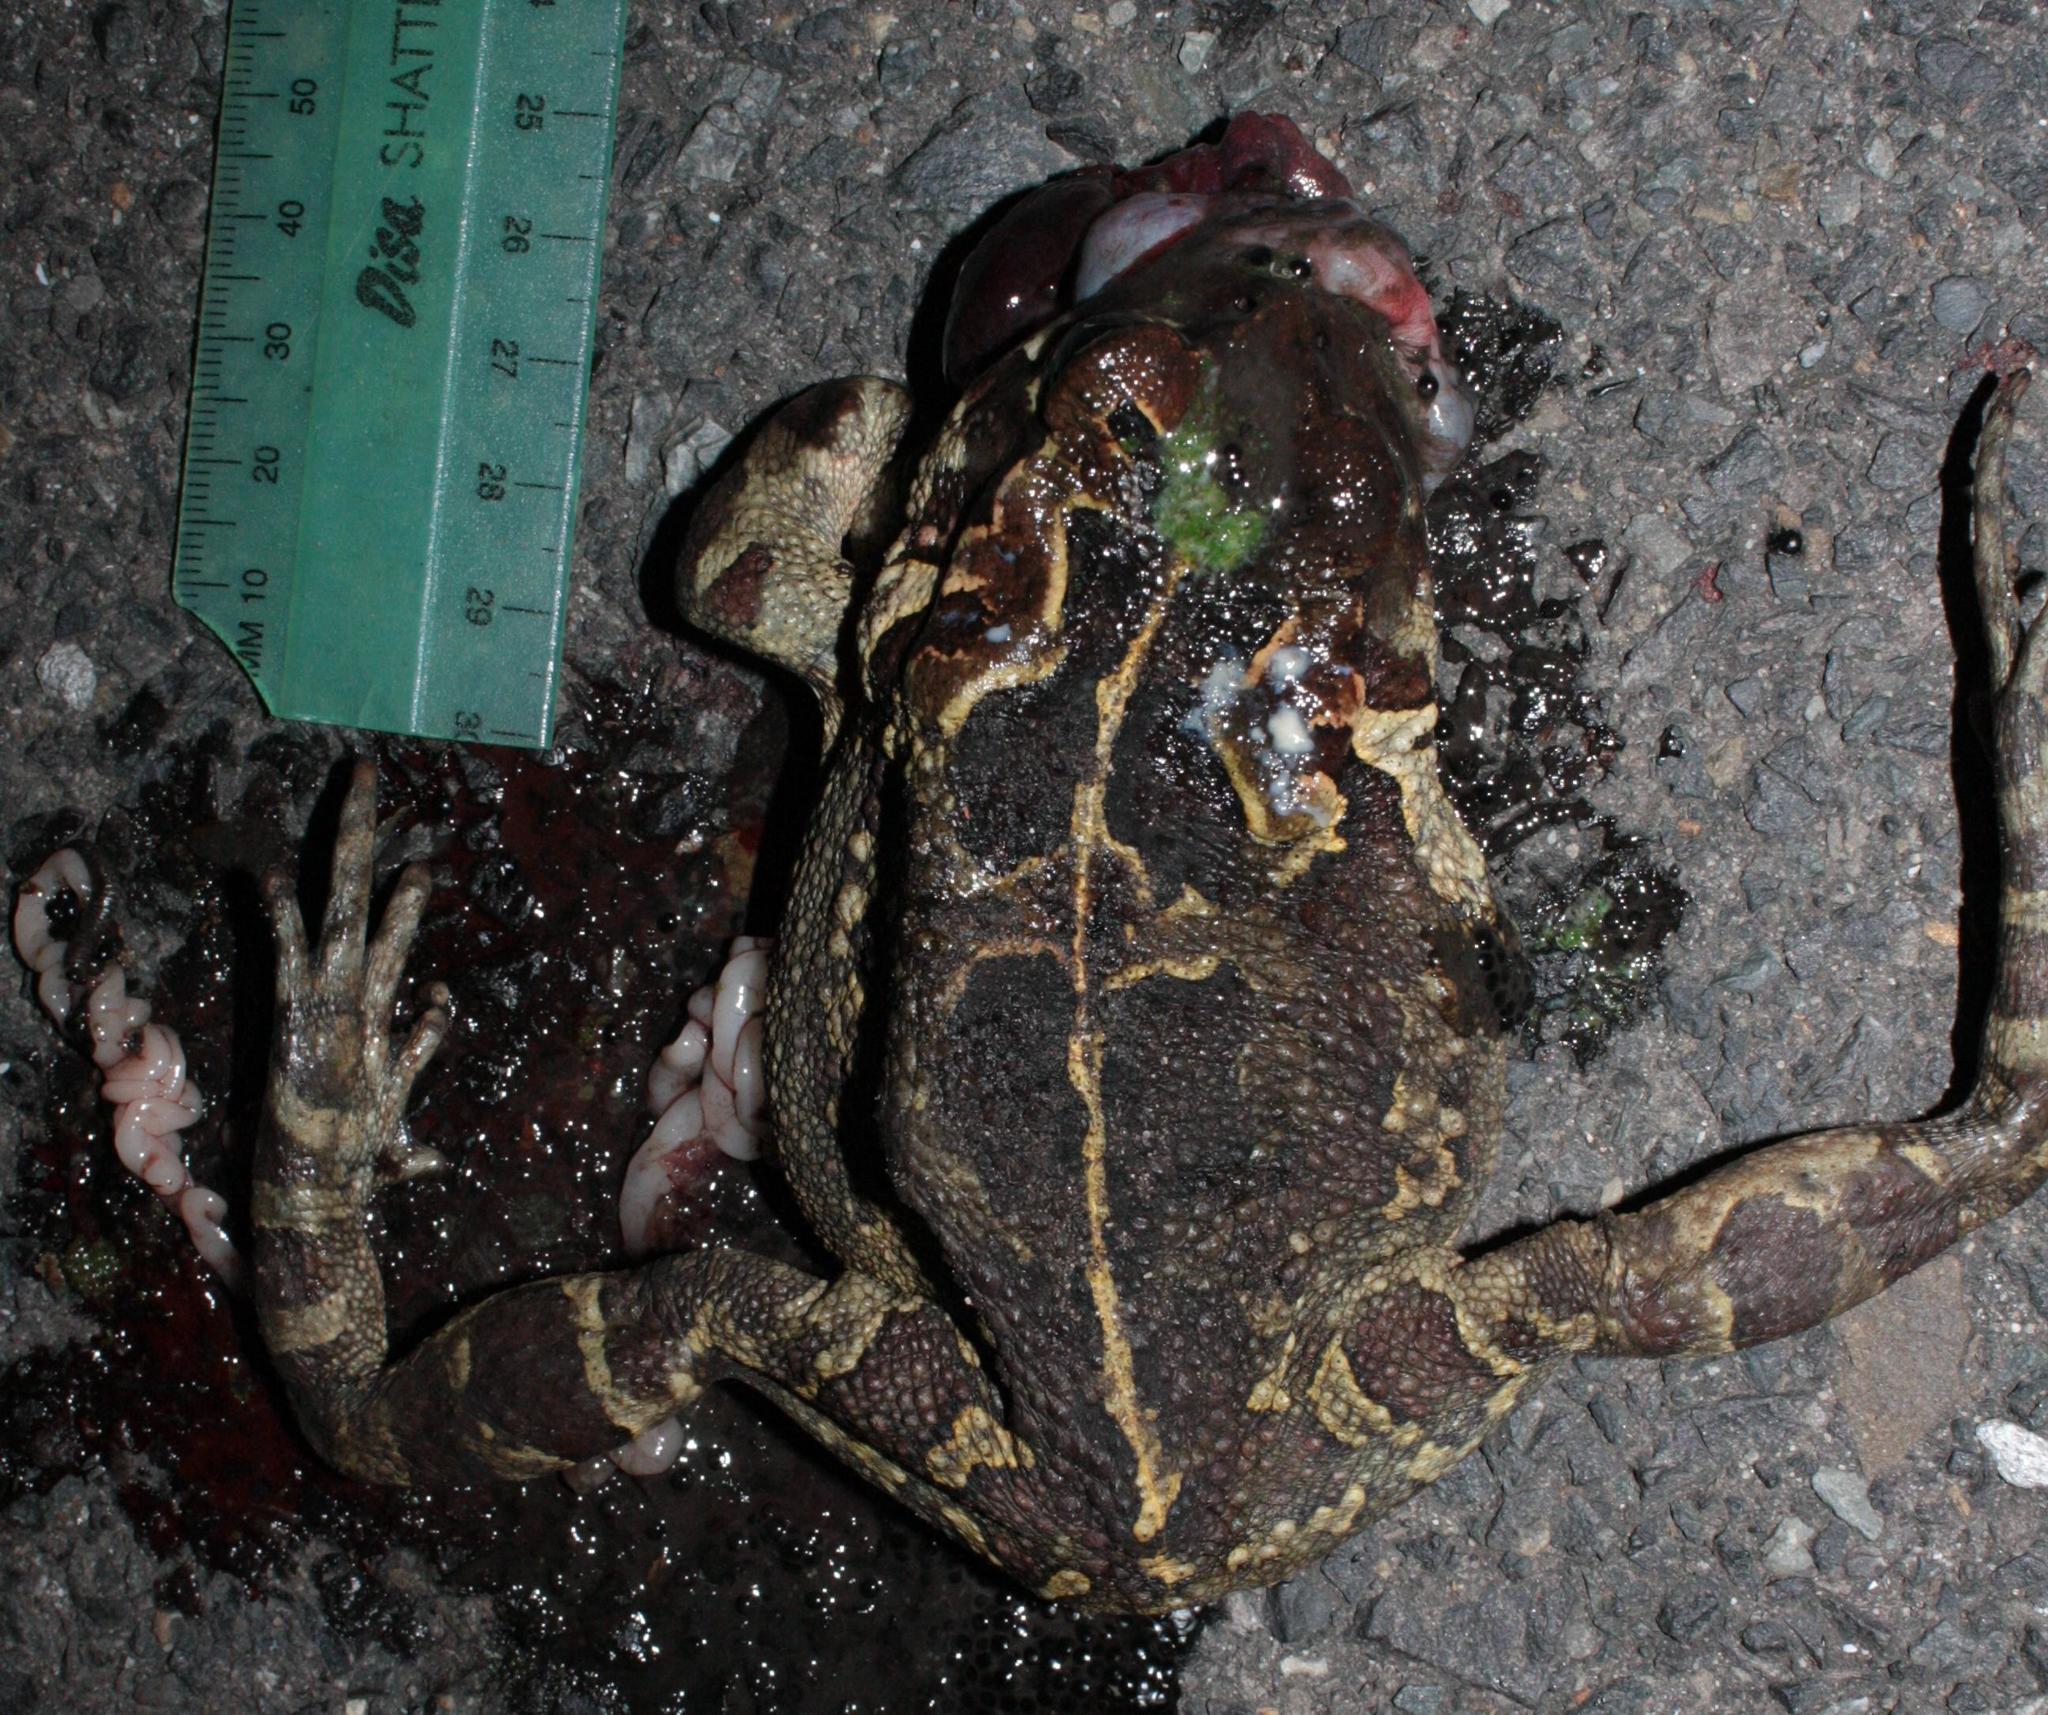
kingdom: Animalia
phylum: Chordata
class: Amphibia
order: Anura
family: Bufonidae
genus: Sclerophrys
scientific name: Sclerophrys pantherina
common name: Panther toad
